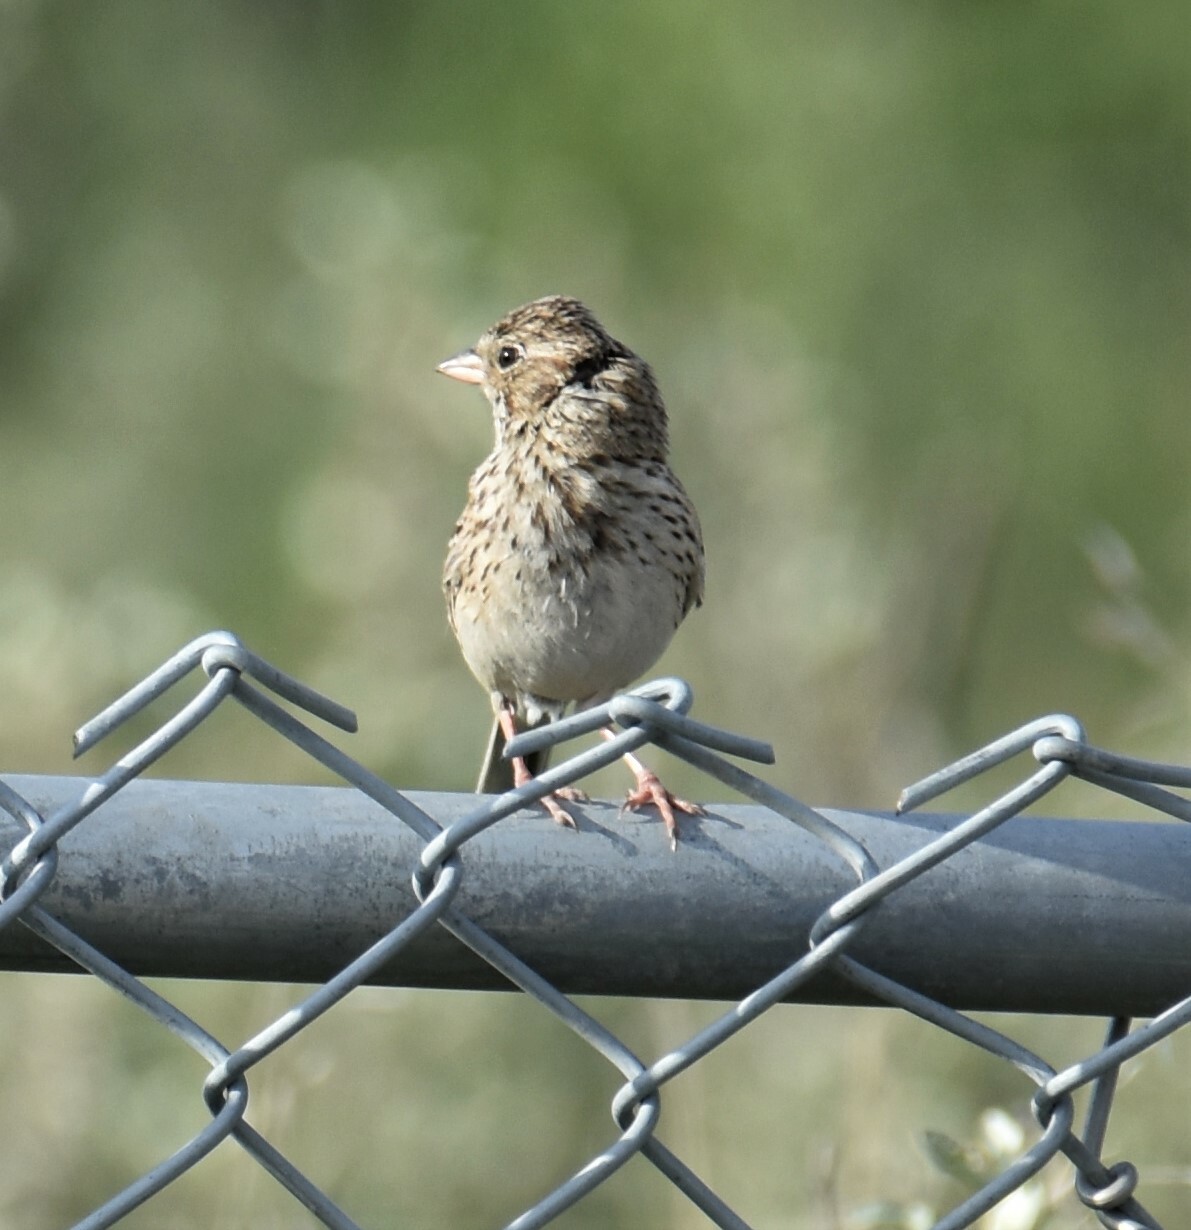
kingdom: Animalia
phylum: Chordata
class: Aves
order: Passeriformes
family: Passerellidae
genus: Pooecetes
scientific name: Pooecetes gramineus
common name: Vesper sparrow
